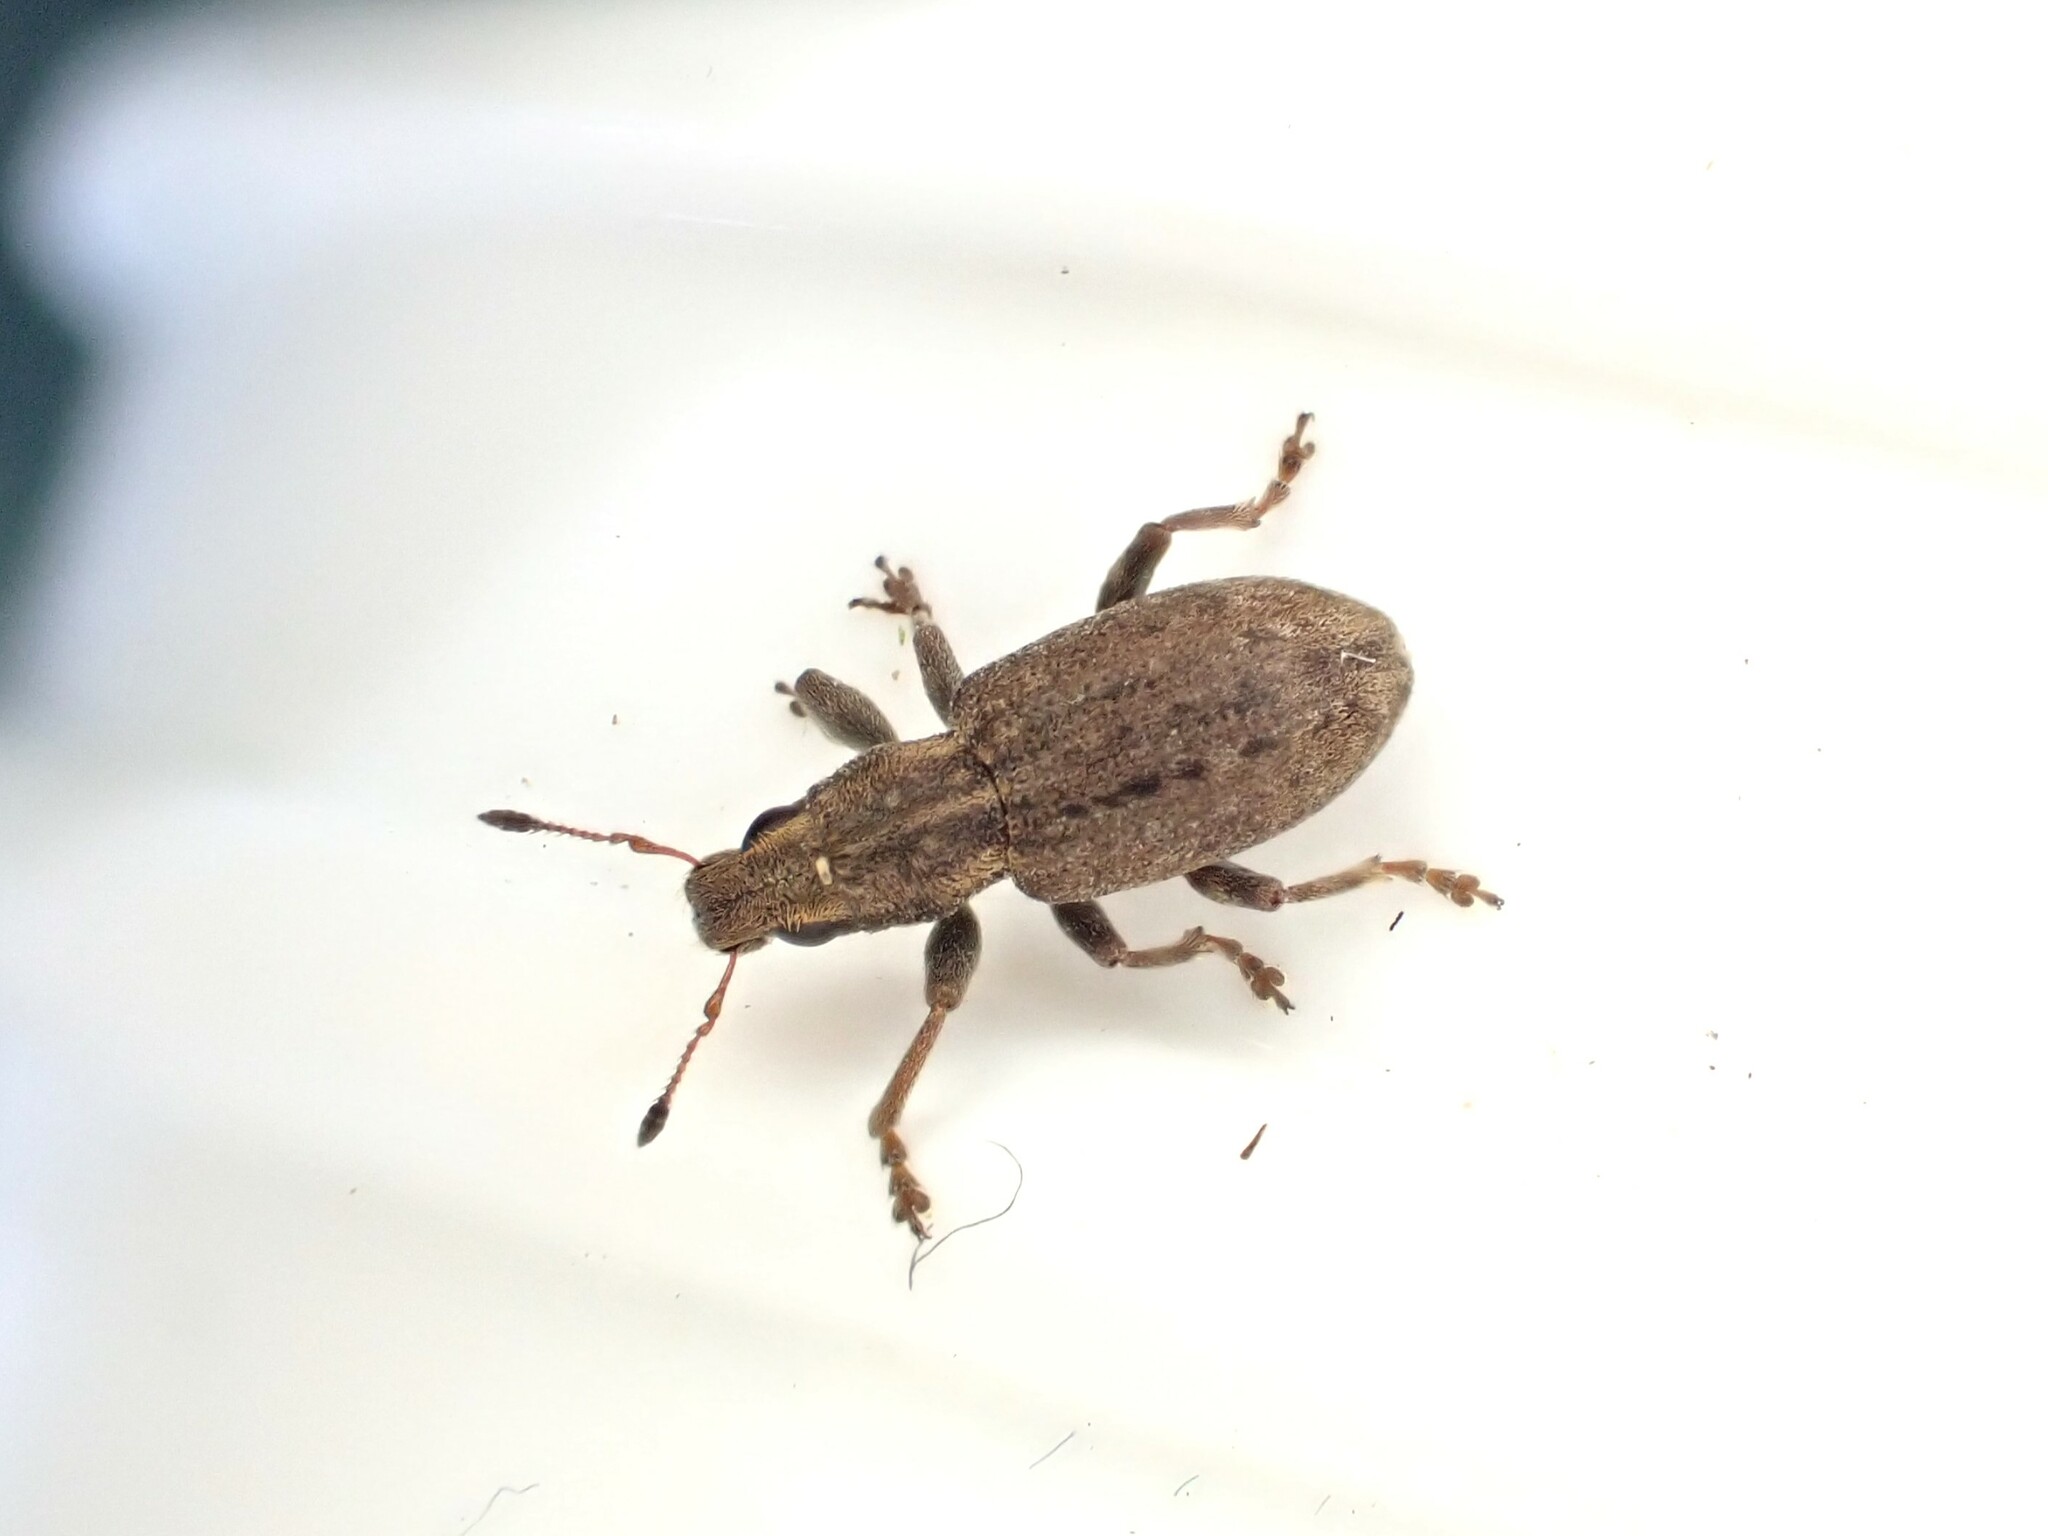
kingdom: Animalia
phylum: Arthropoda
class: Insecta
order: Coleoptera
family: Curculionidae
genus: Sitona
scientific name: Sitona obsoletus
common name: Weevil
